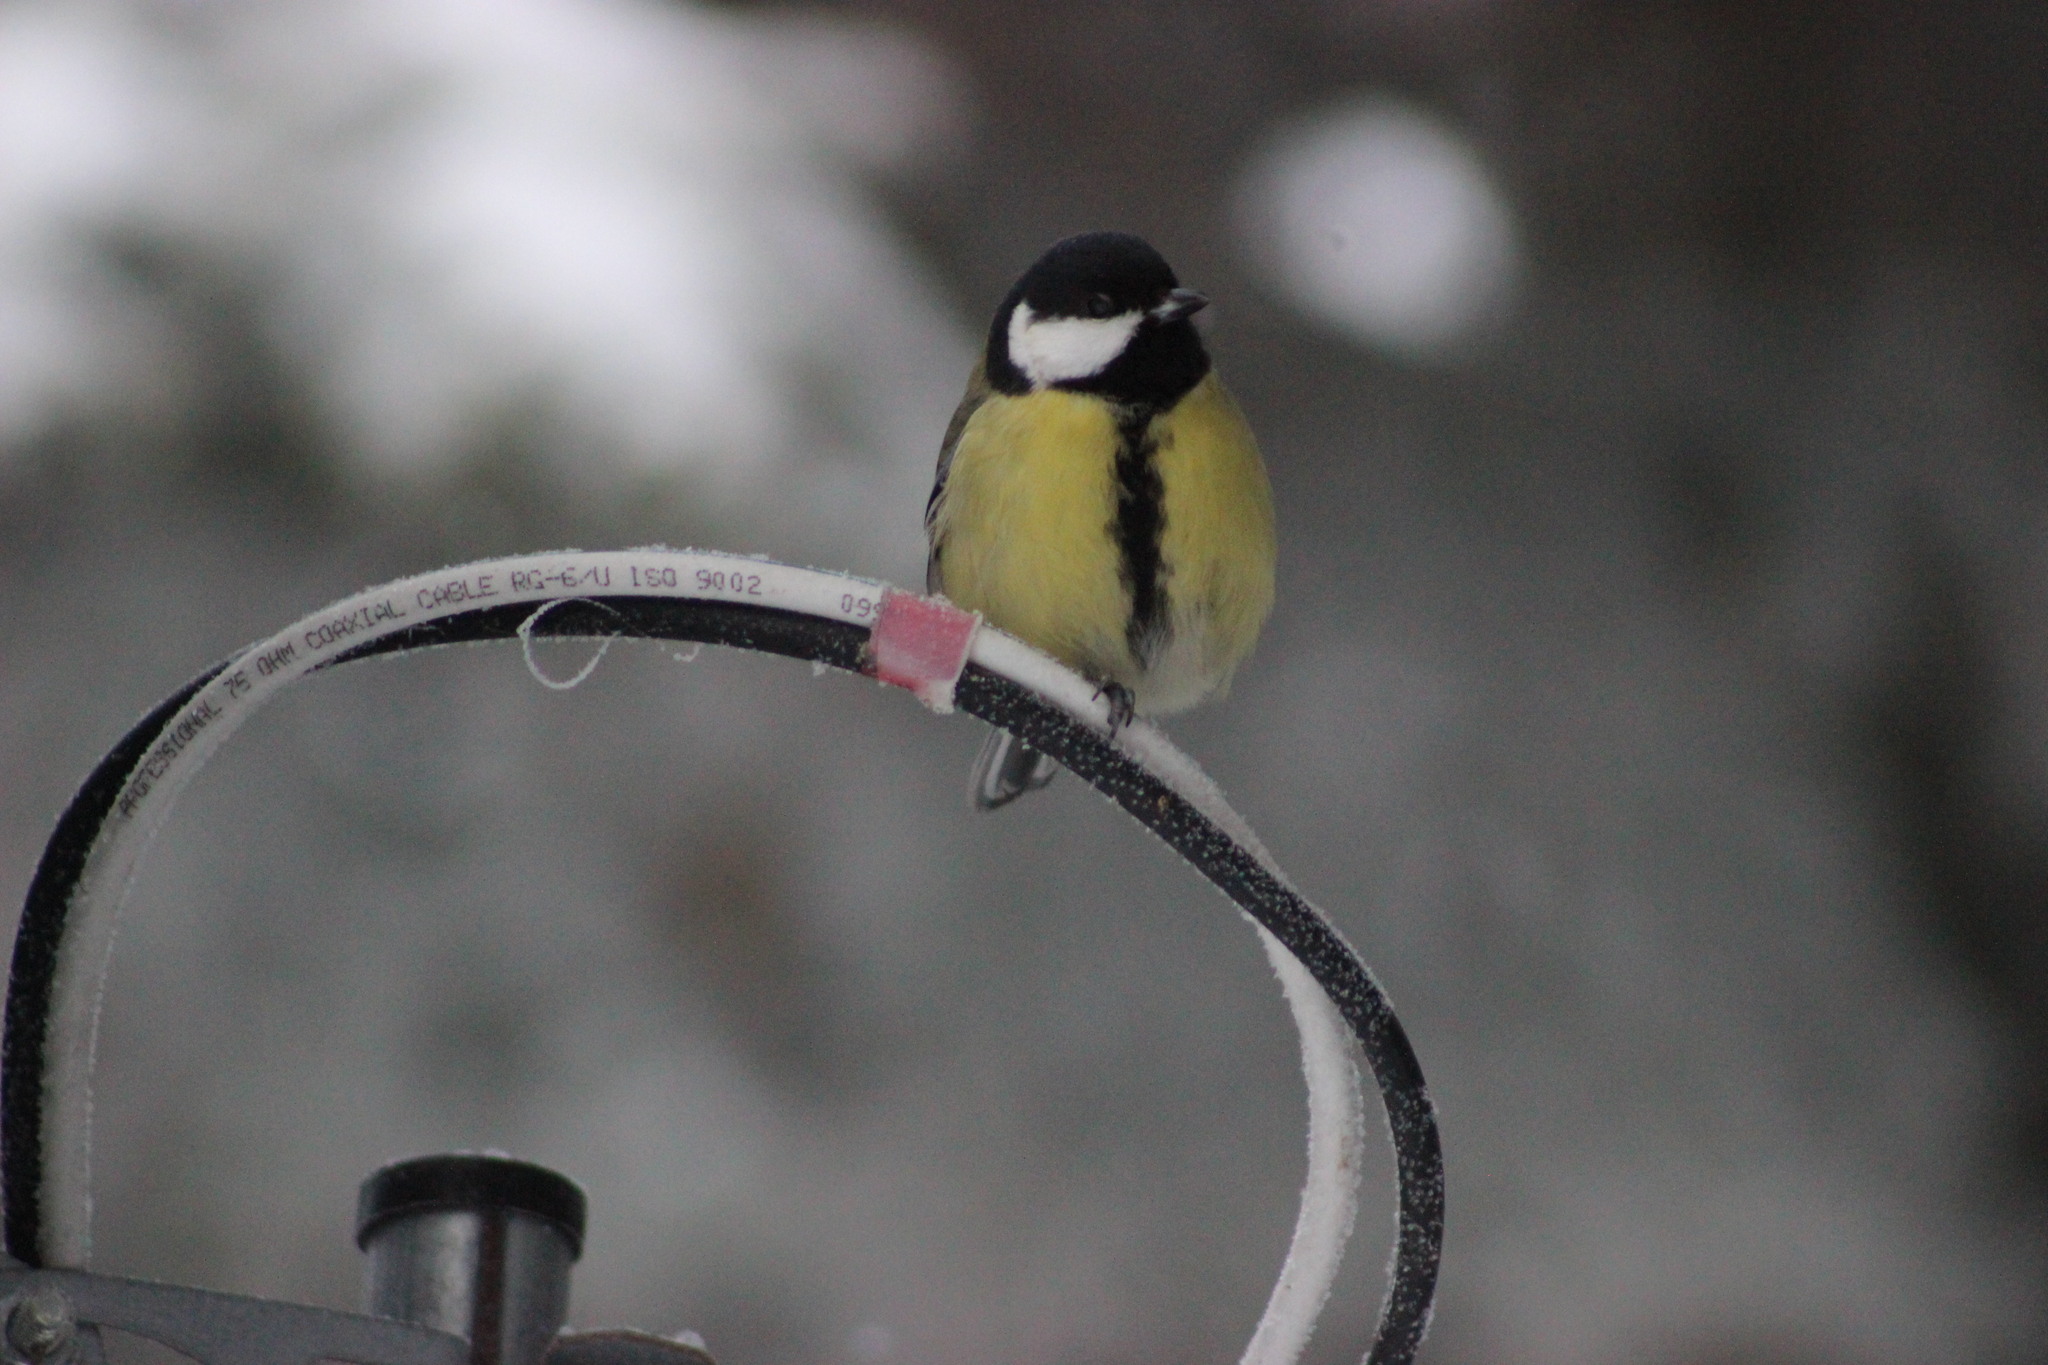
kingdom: Animalia
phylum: Chordata
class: Aves
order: Passeriformes
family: Paridae
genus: Parus
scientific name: Parus major
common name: Great tit
